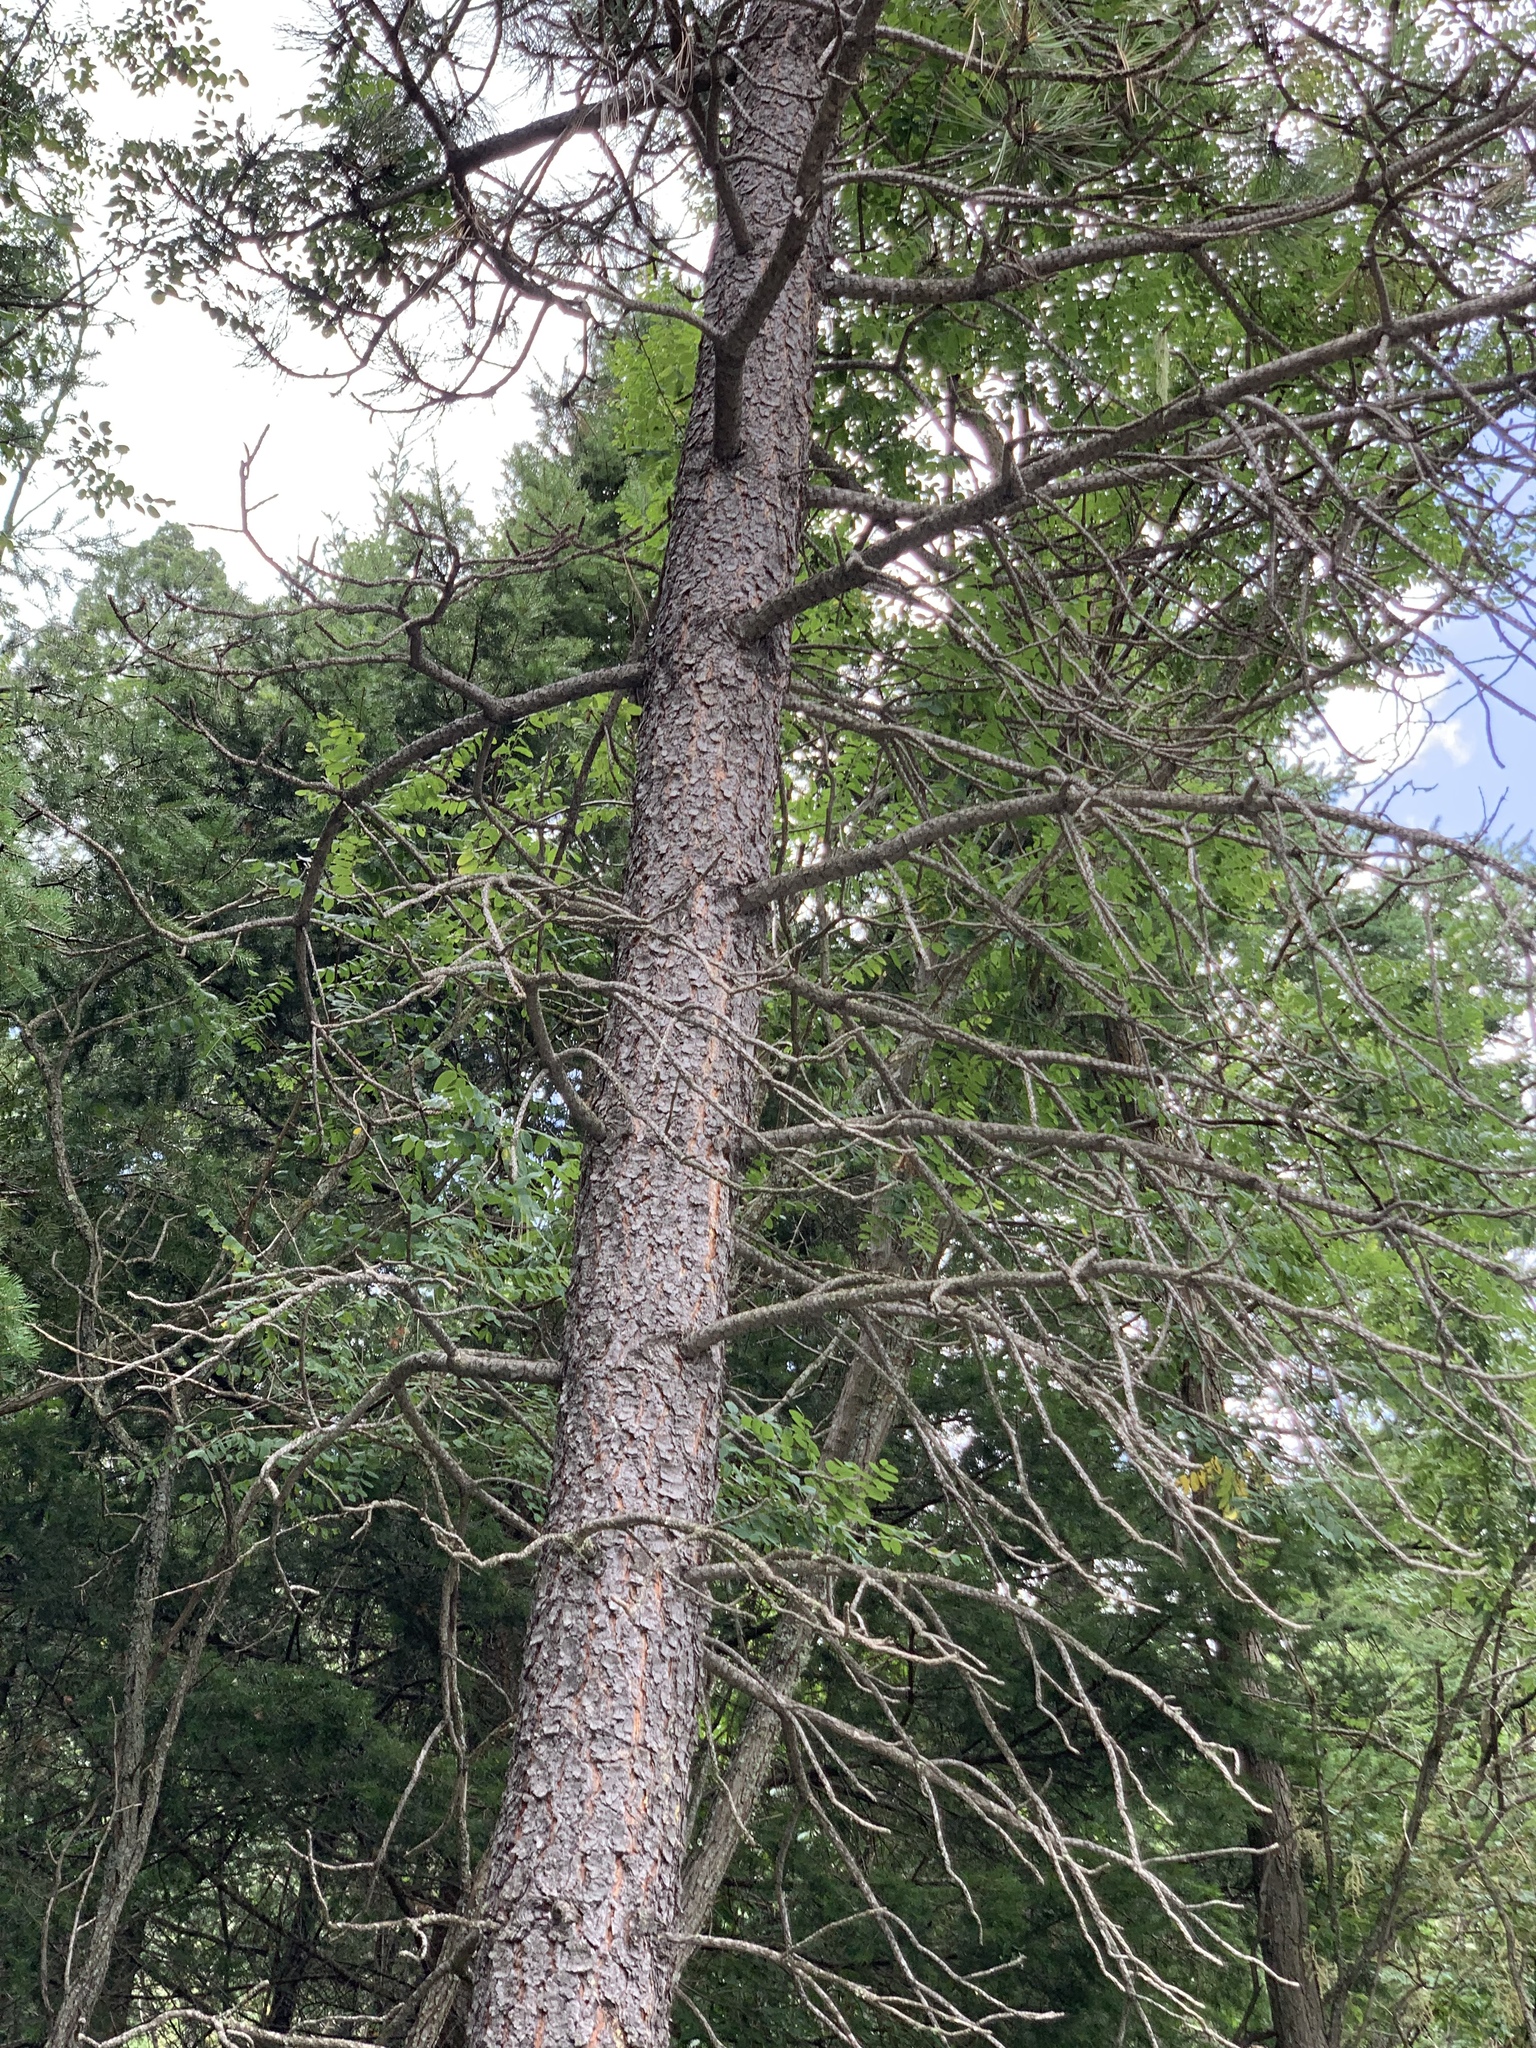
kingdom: Plantae
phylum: Tracheophyta
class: Pinopsida
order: Pinales
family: Pinaceae
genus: Pinus
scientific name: Pinus ponderosa
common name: Western yellow-pine
